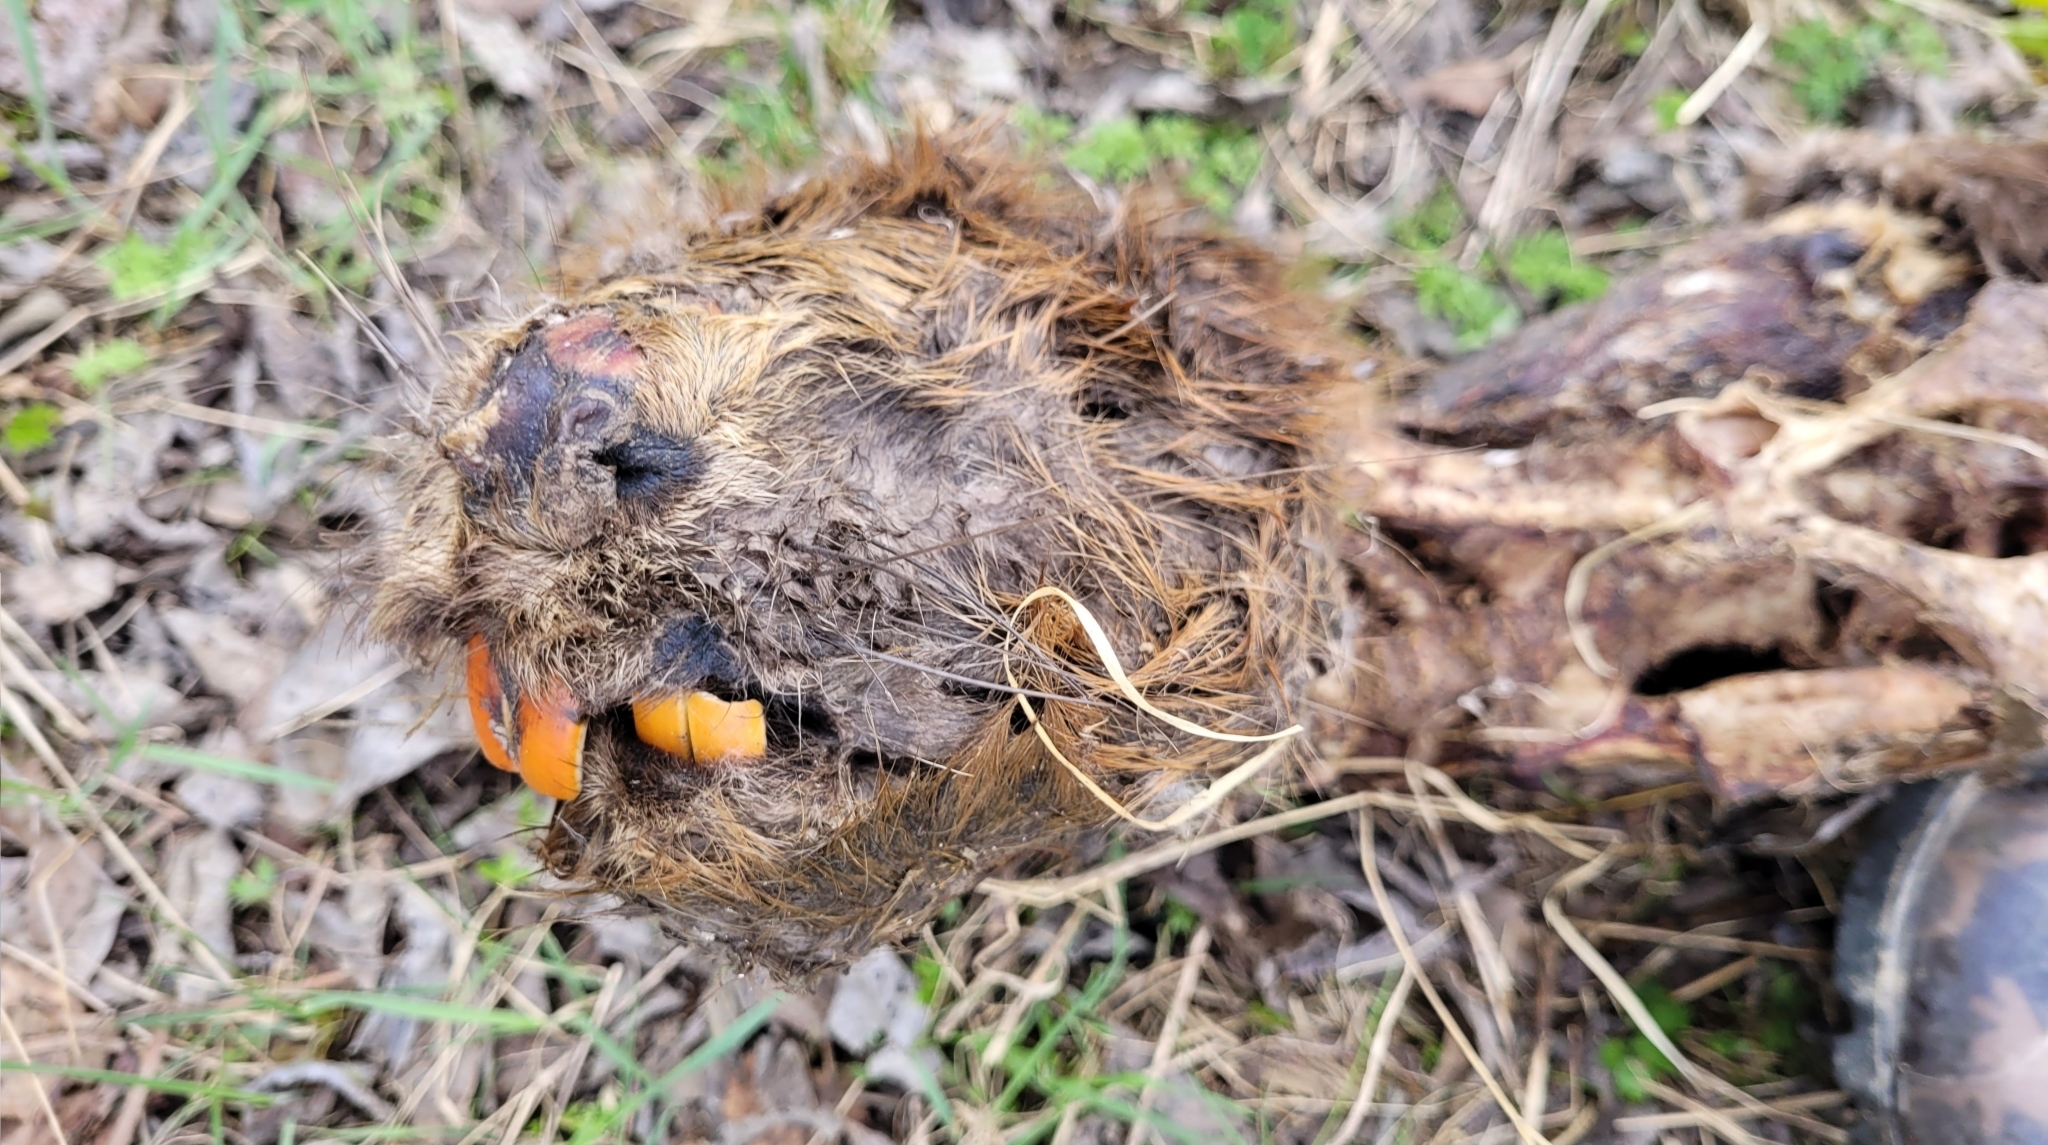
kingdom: Animalia
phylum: Chordata
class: Mammalia
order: Rodentia
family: Castoridae
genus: Castor
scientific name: Castor fiber
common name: Eurasian beaver
